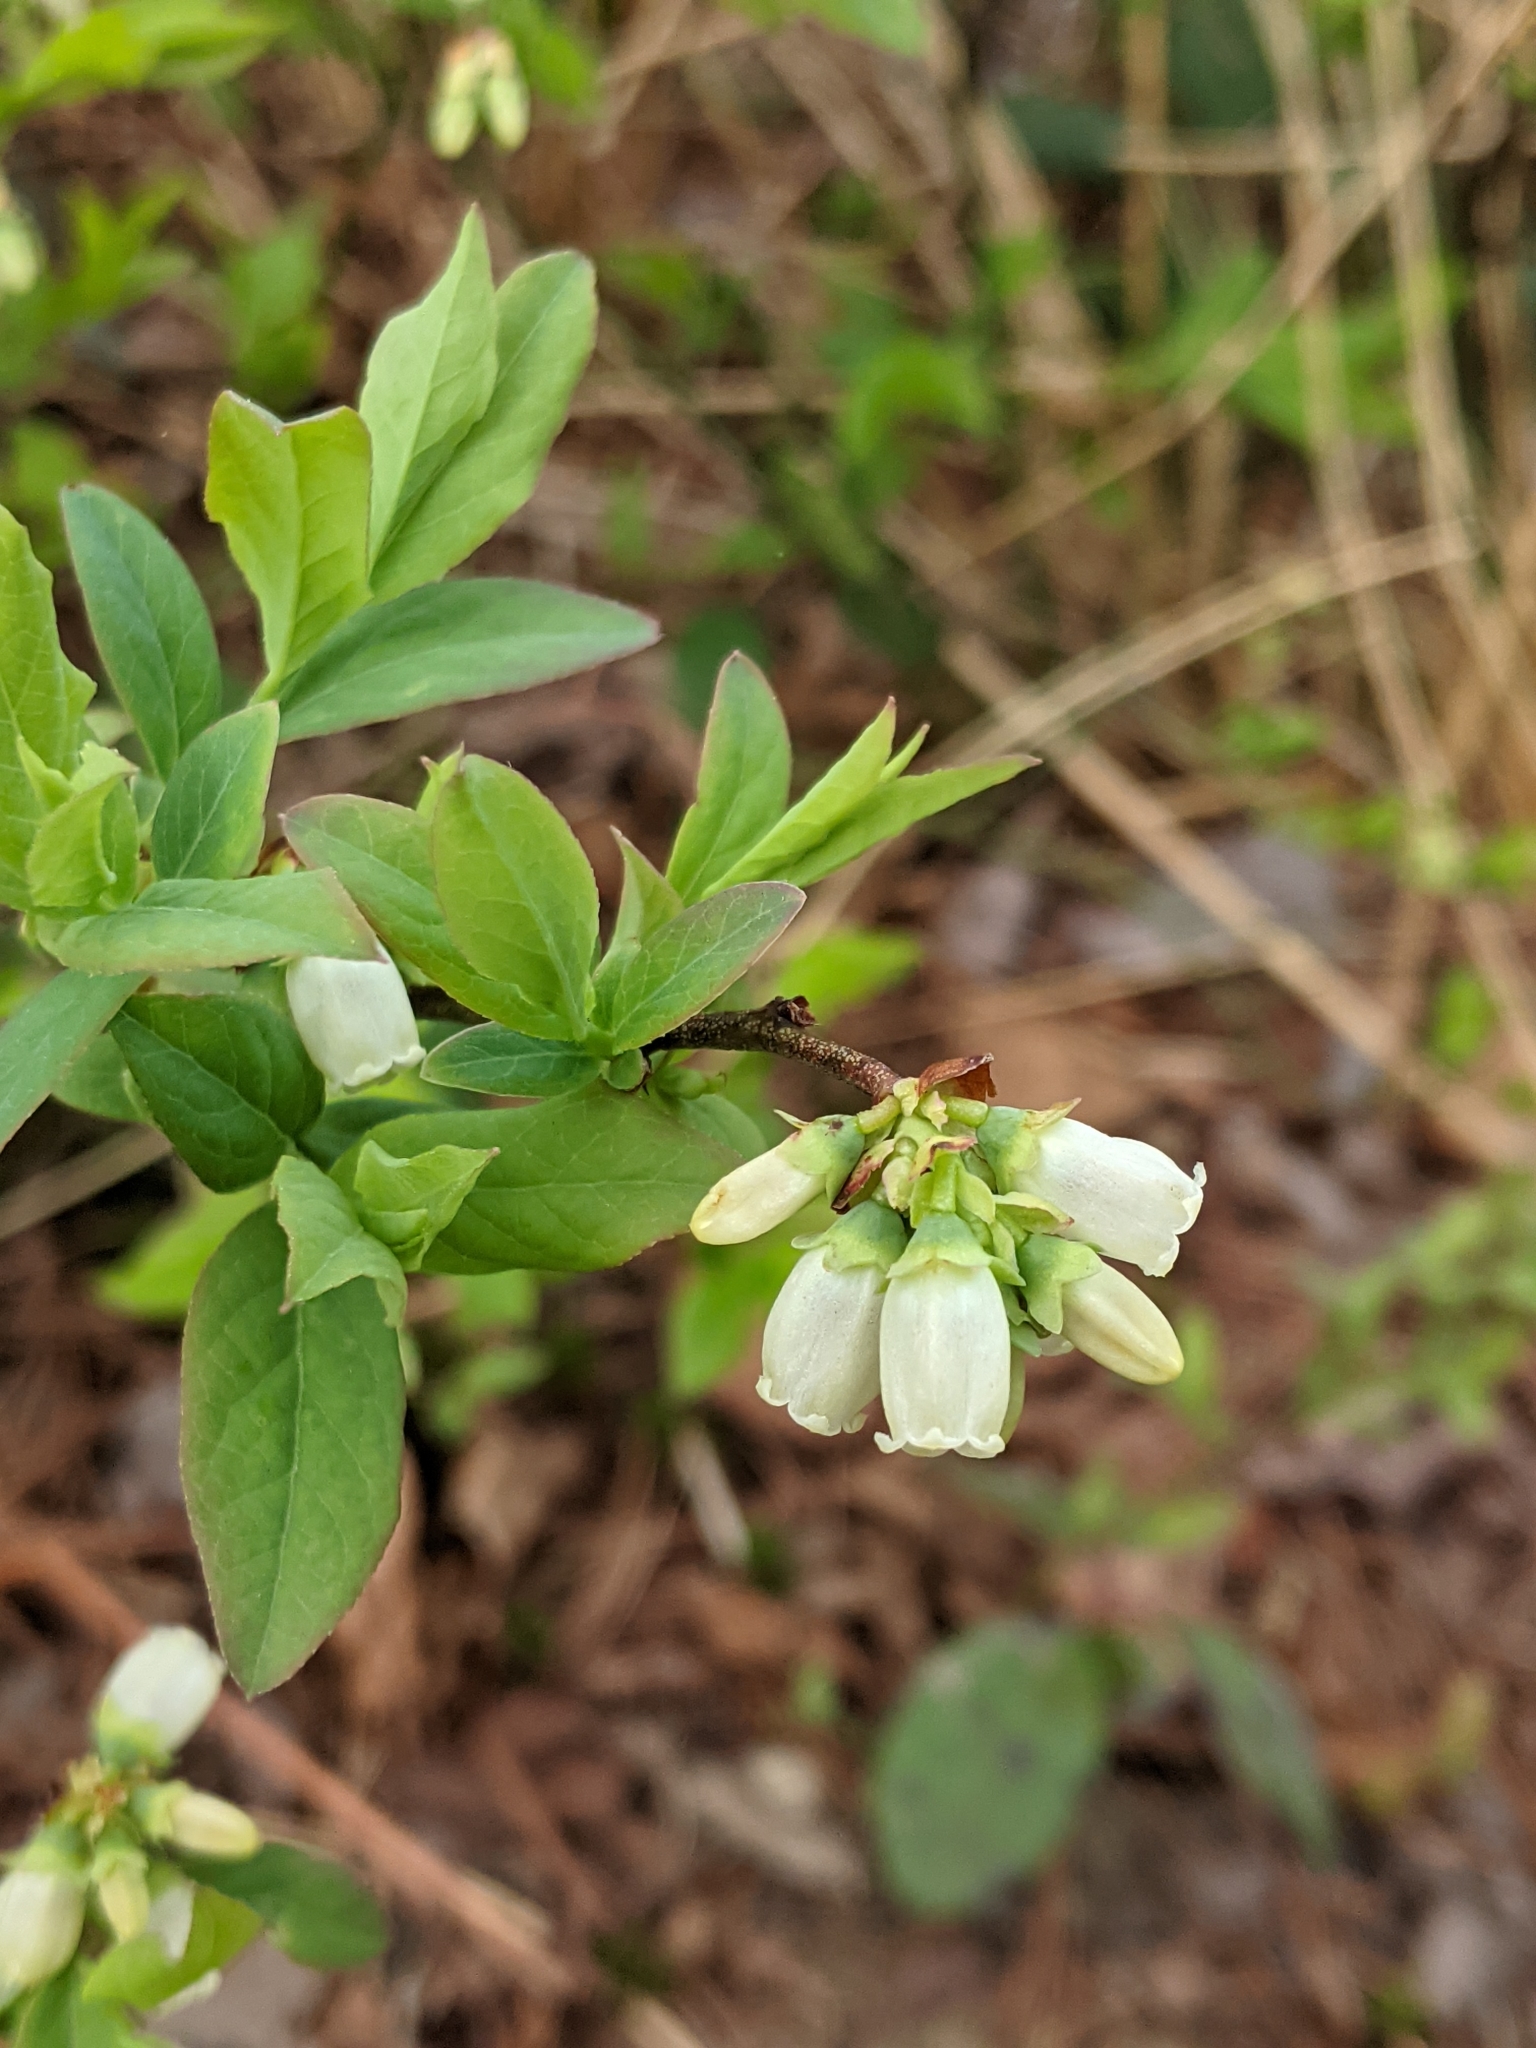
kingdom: Plantae
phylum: Tracheophyta
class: Magnoliopsida
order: Ericales
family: Ericaceae
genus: Vaccinium
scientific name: Vaccinium angustifolium
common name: Early lowbush blueberry
